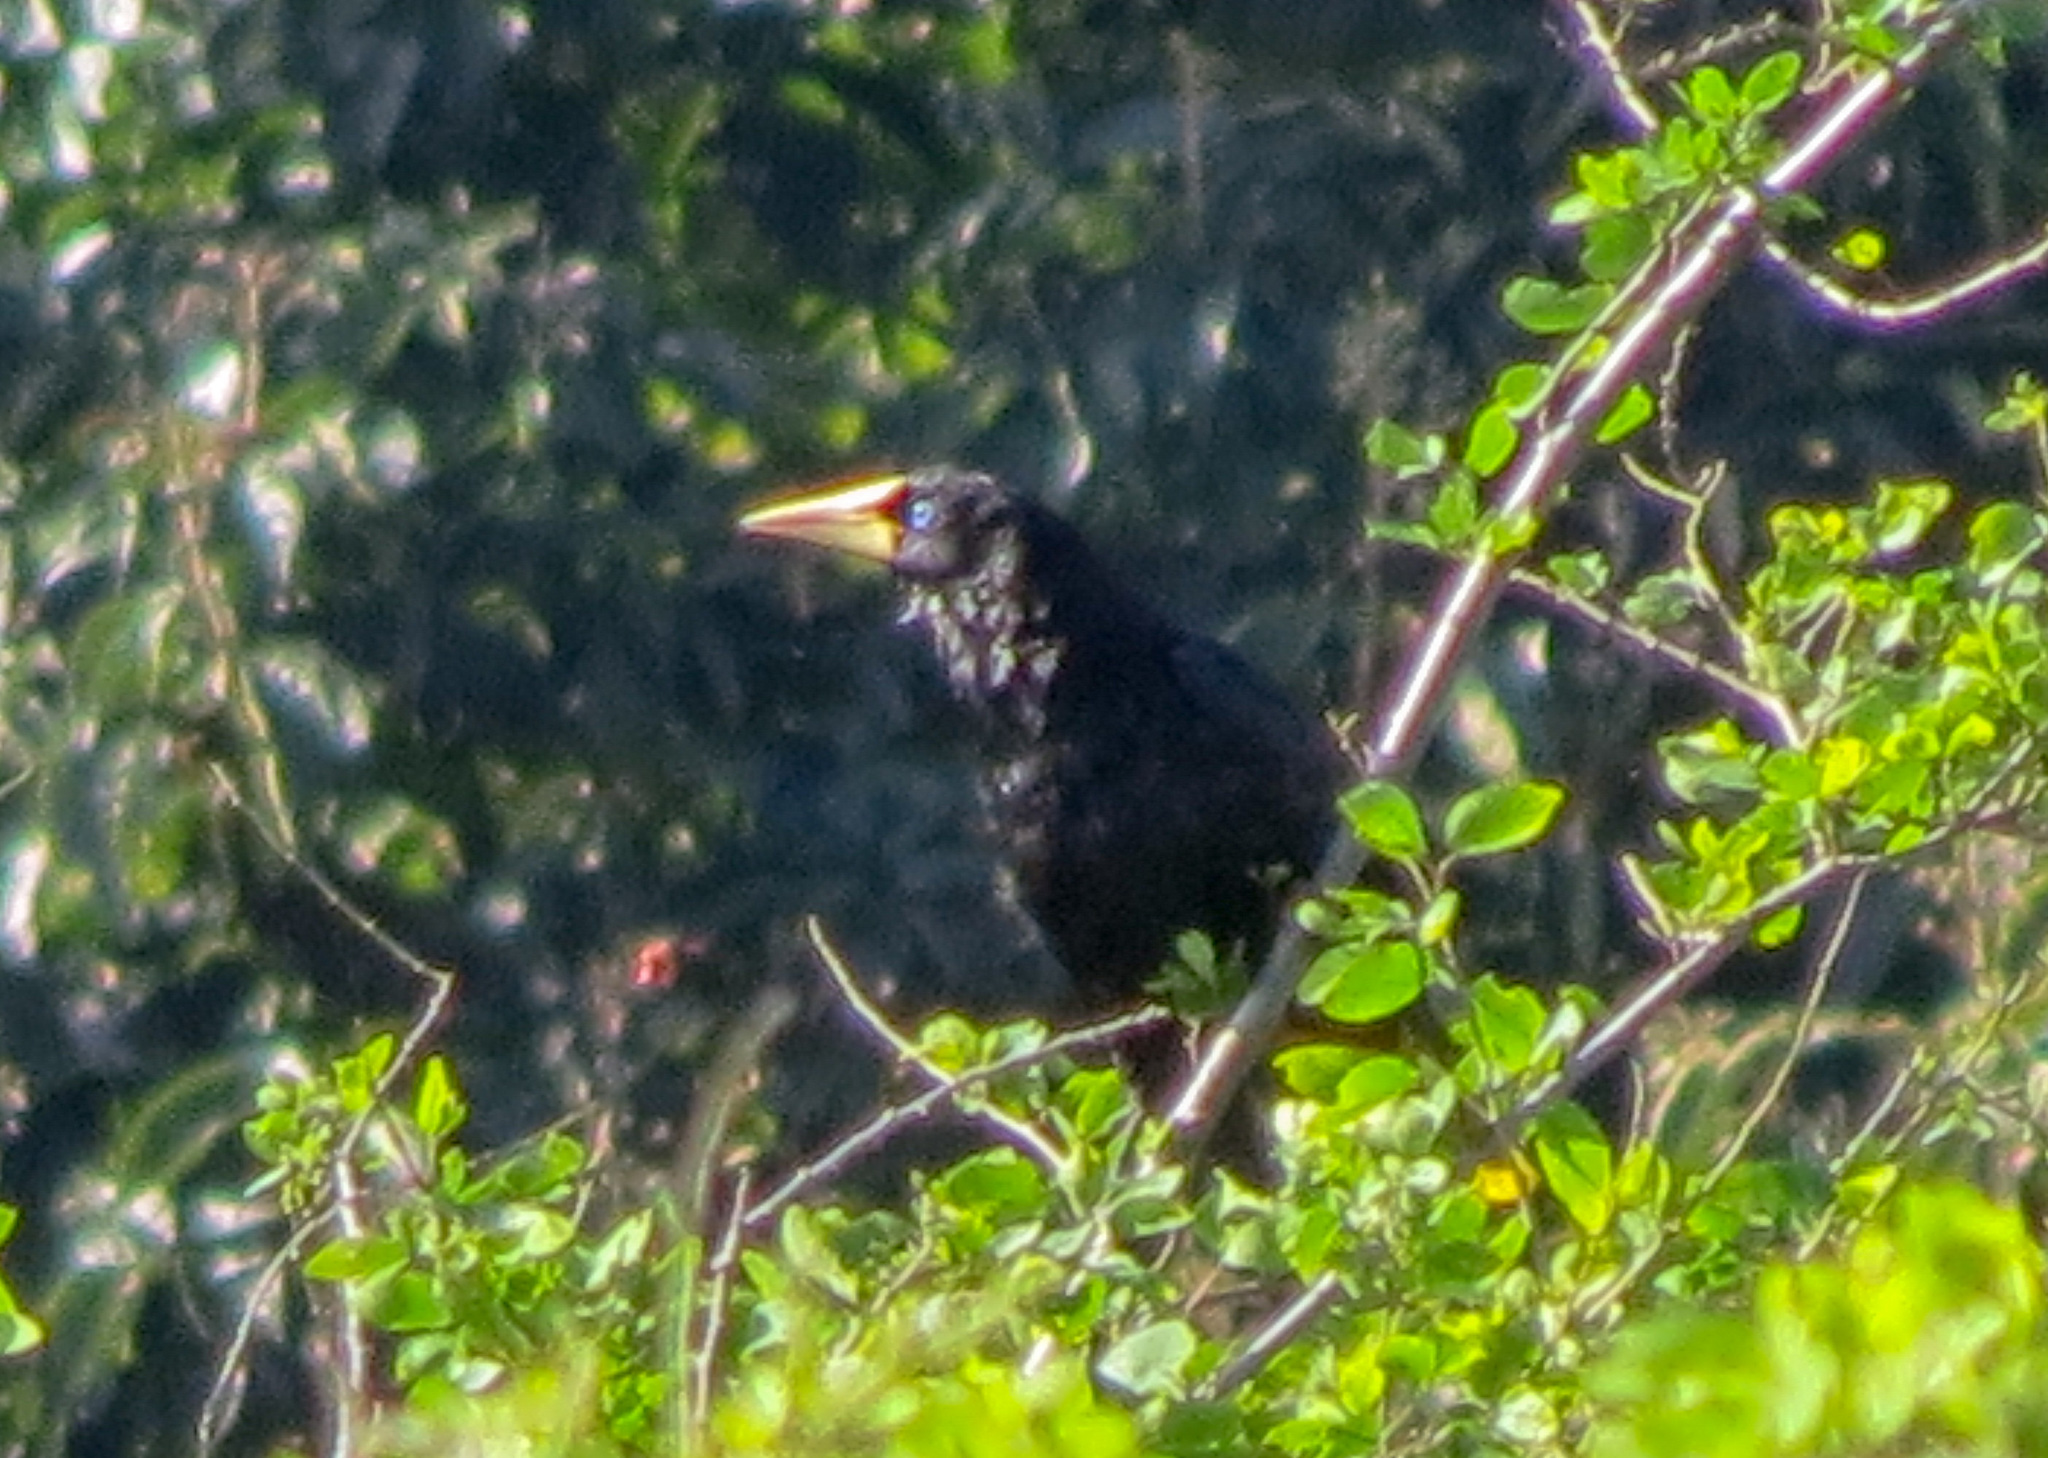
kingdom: Animalia
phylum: Chordata
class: Aves
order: Passeriformes
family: Icteridae
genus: Psarocolius
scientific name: Psarocolius decumanus
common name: Crested oropendola
